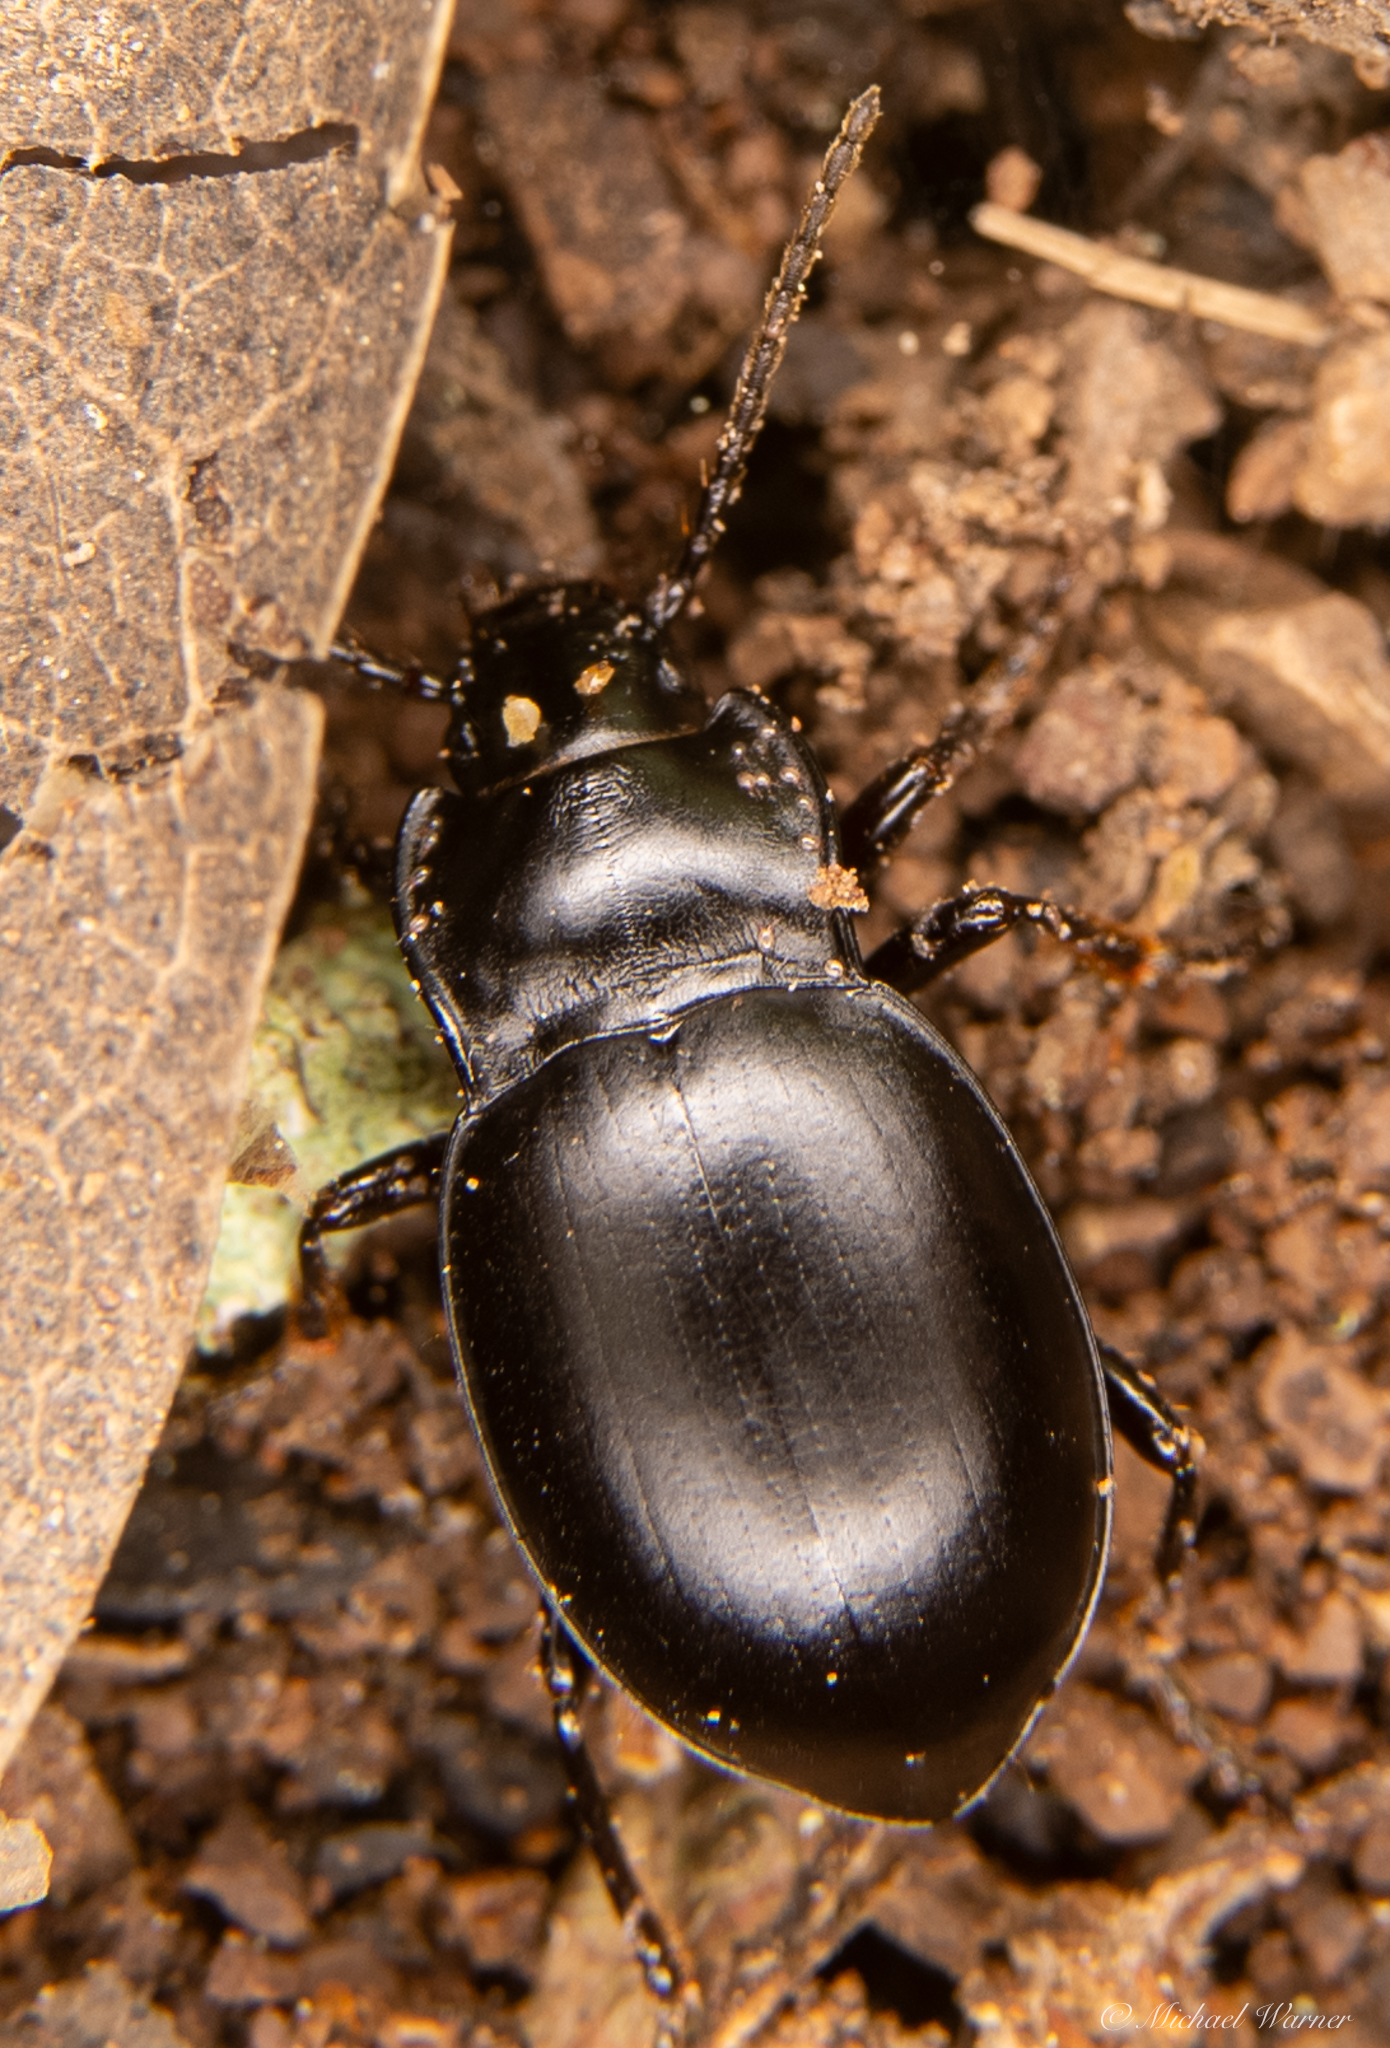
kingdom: Animalia
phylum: Arthropoda
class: Insecta
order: Coleoptera
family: Carabidae
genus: Metrius
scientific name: Metrius contractus
